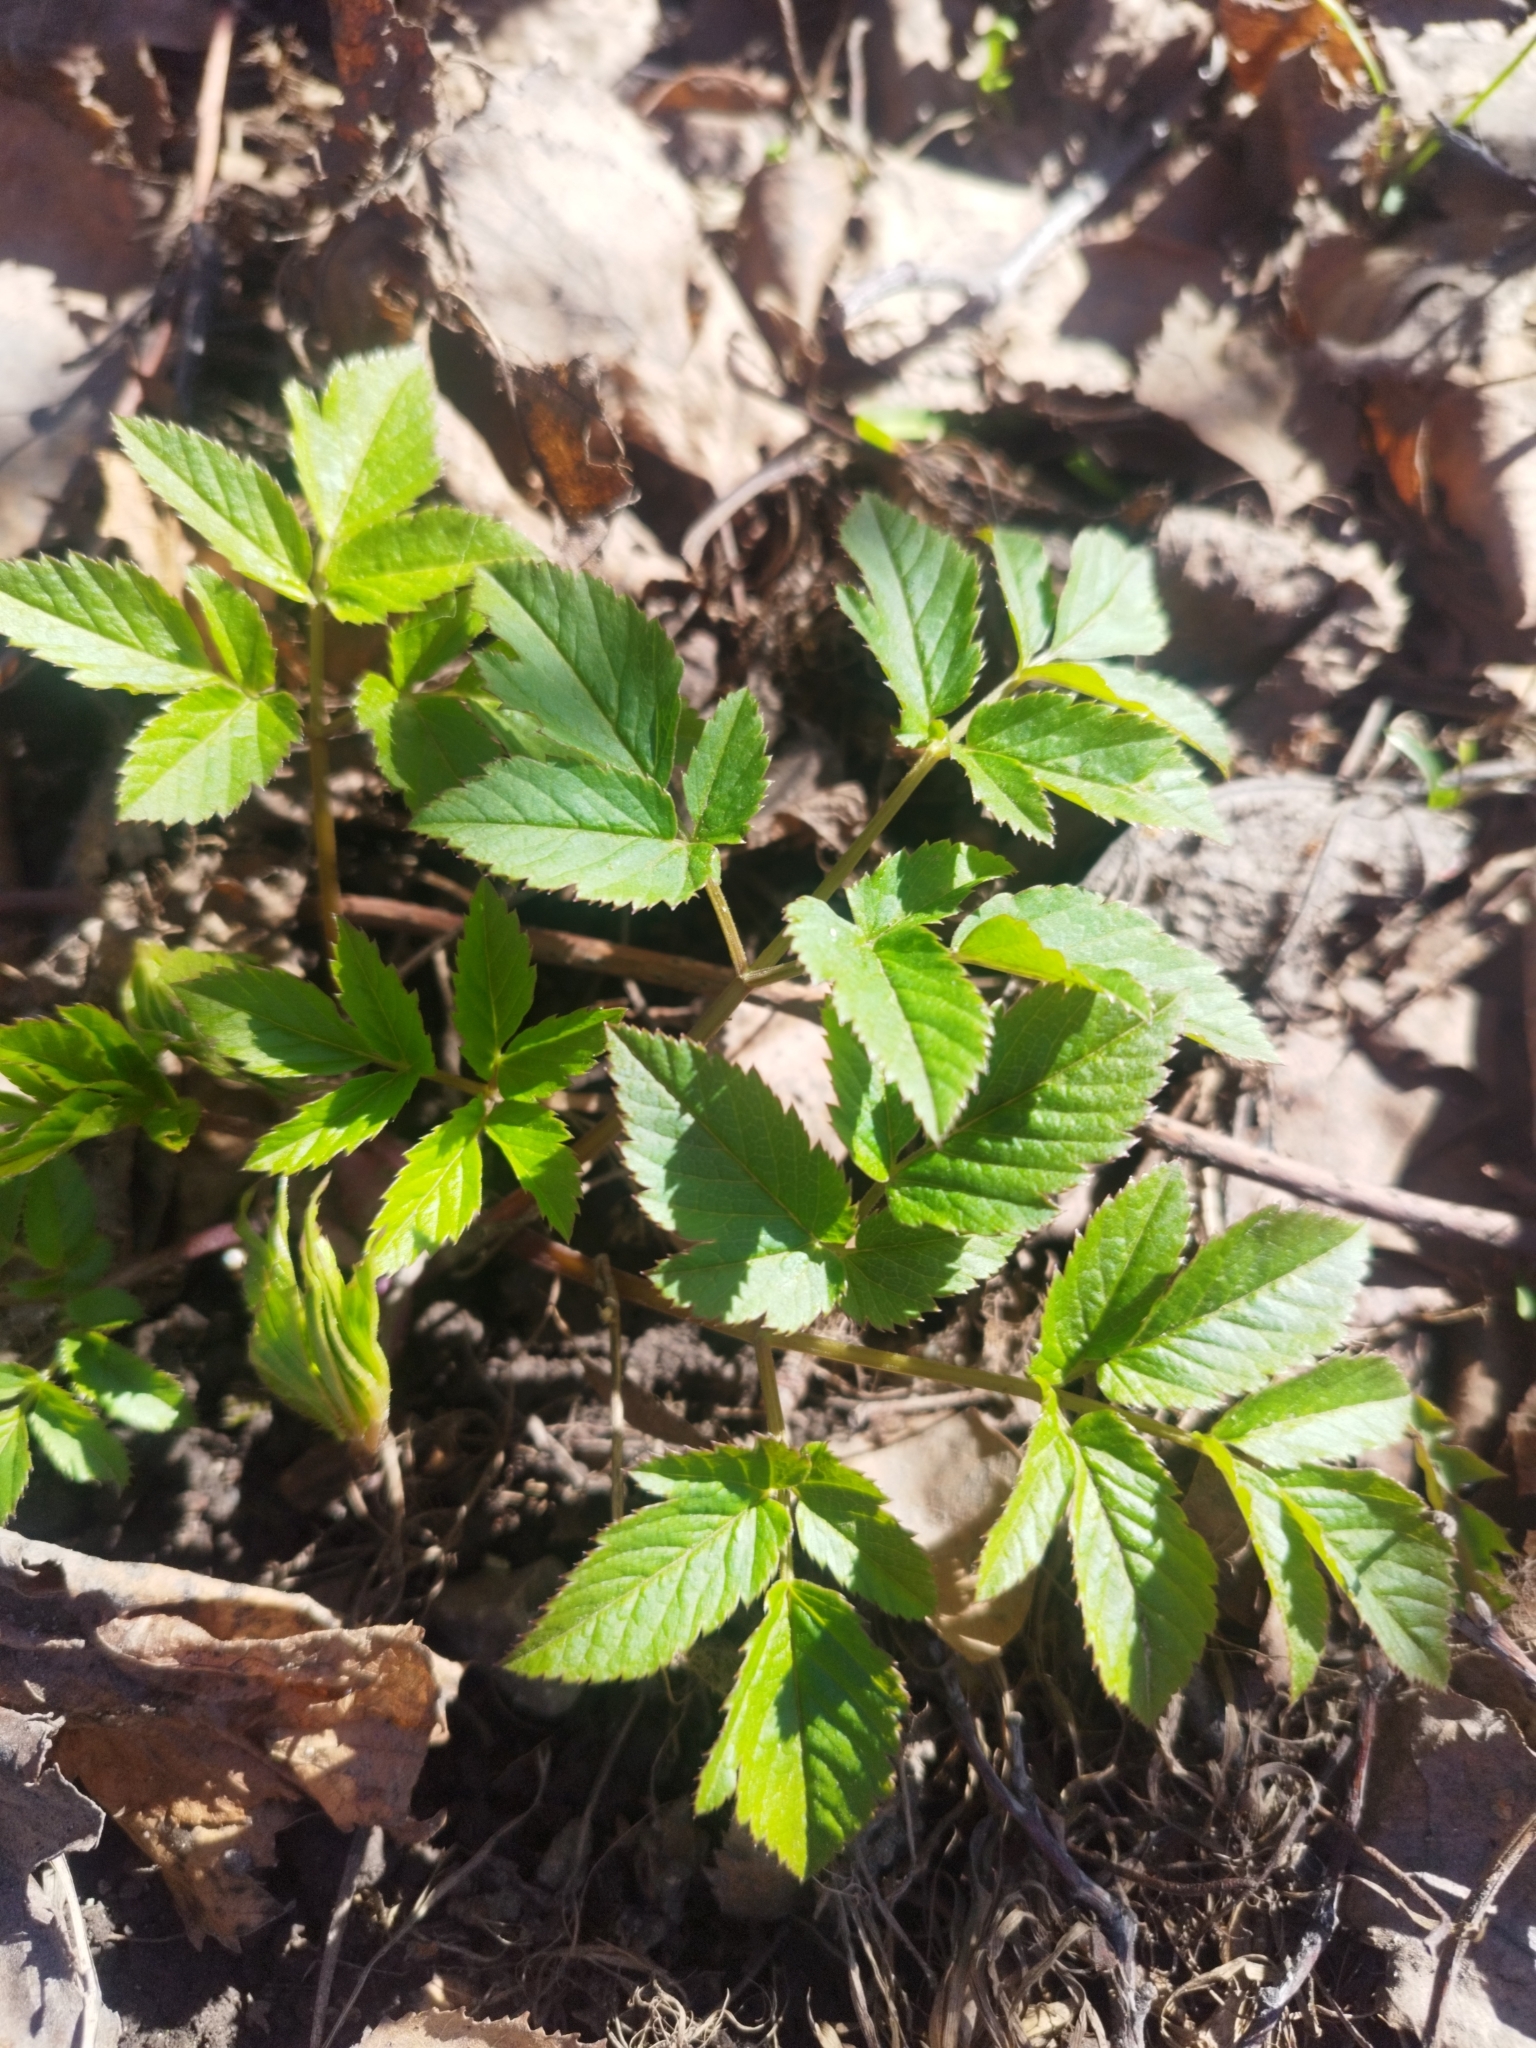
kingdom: Plantae
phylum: Tracheophyta
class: Magnoliopsida
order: Apiales
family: Apiaceae
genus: Aegopodium
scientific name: Aegopodium podagraria
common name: Ground-elder
